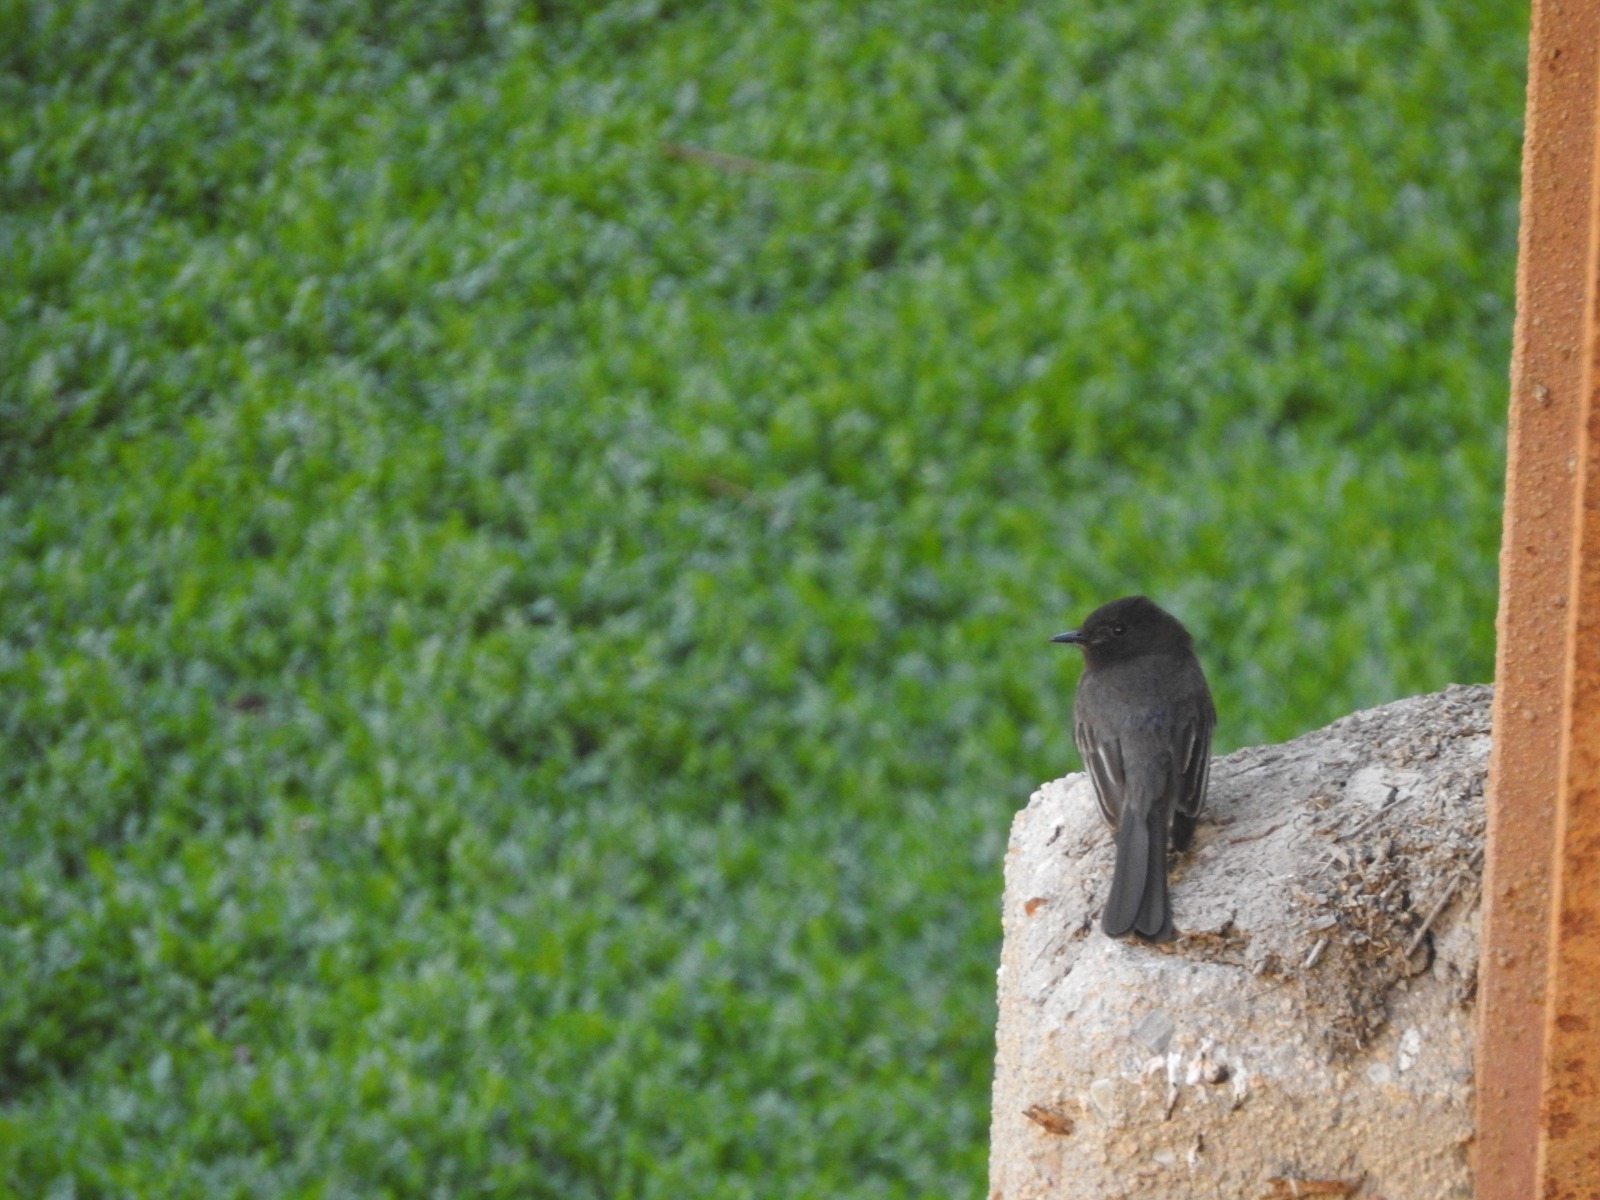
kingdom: Animalia
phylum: Chordata
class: Aves
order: Passeriformes
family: Tyrannidae
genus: Sayornis
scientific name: Sayornis nigricans
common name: Black phoebe
